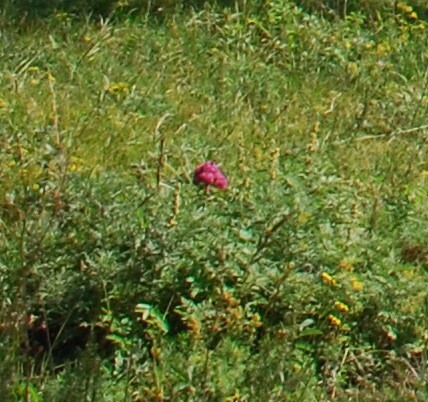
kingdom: Plantae
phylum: Tracheophyta
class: Magnoliopsida
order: Saxifragales
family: Paeoniaceae
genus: Paeonia
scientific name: Paeonia anomala
